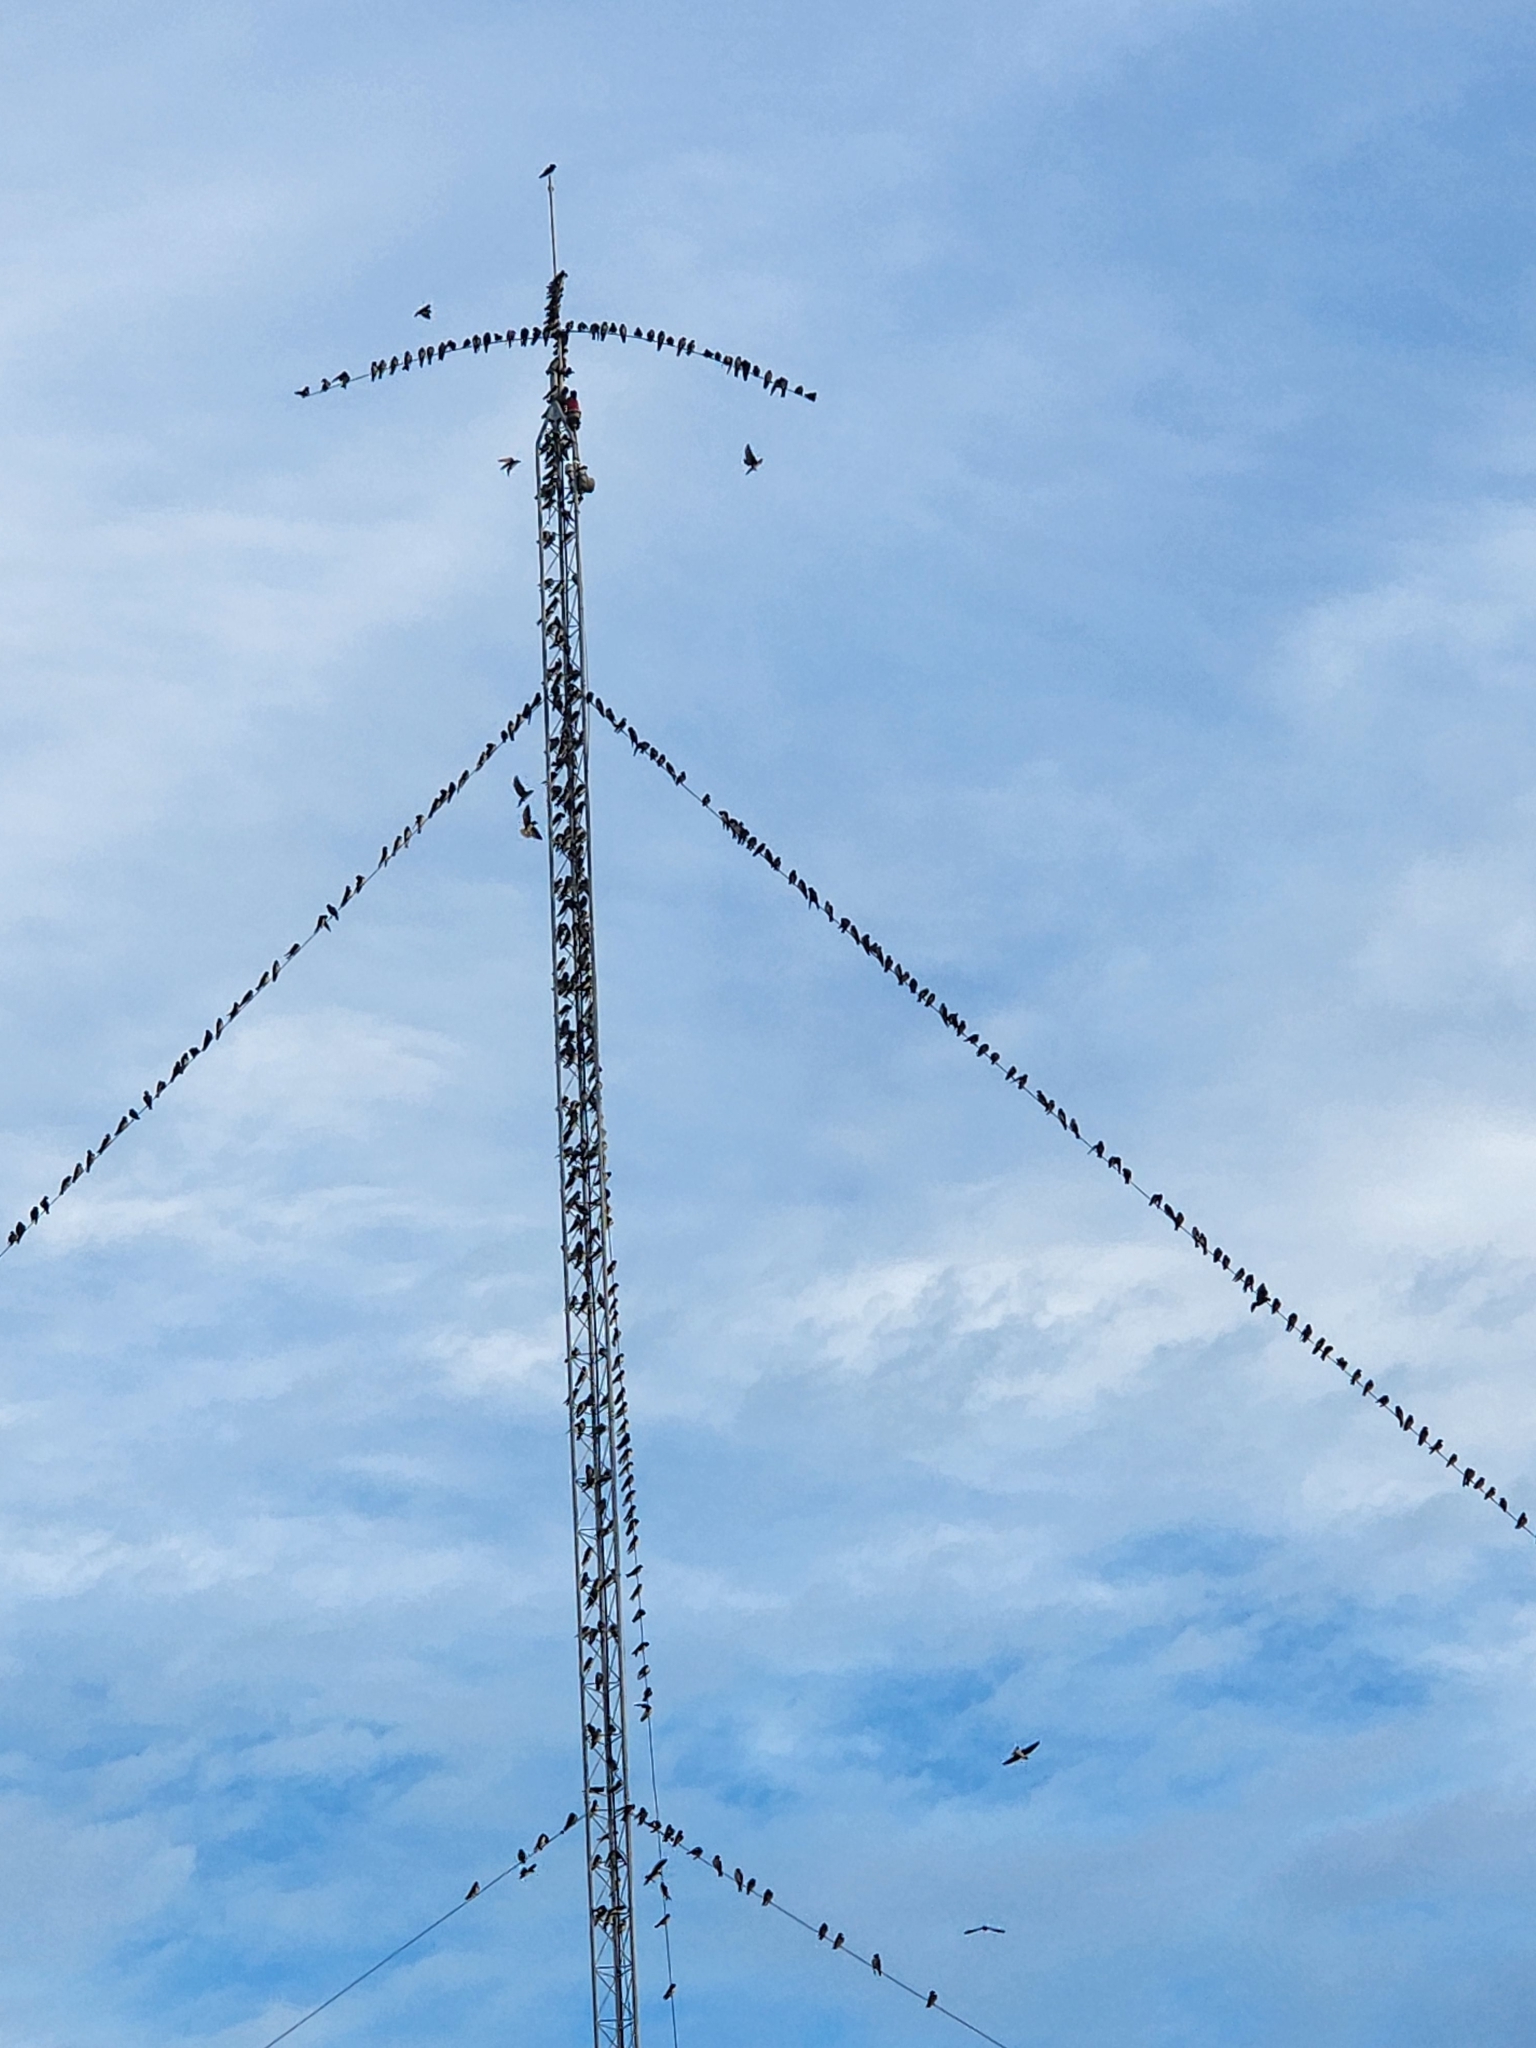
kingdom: Animalia
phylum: Chordata
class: Aves
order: Passeriformes
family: Hirundinidae
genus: Hirundo
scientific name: Hirundo rustica
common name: Barn swallow
